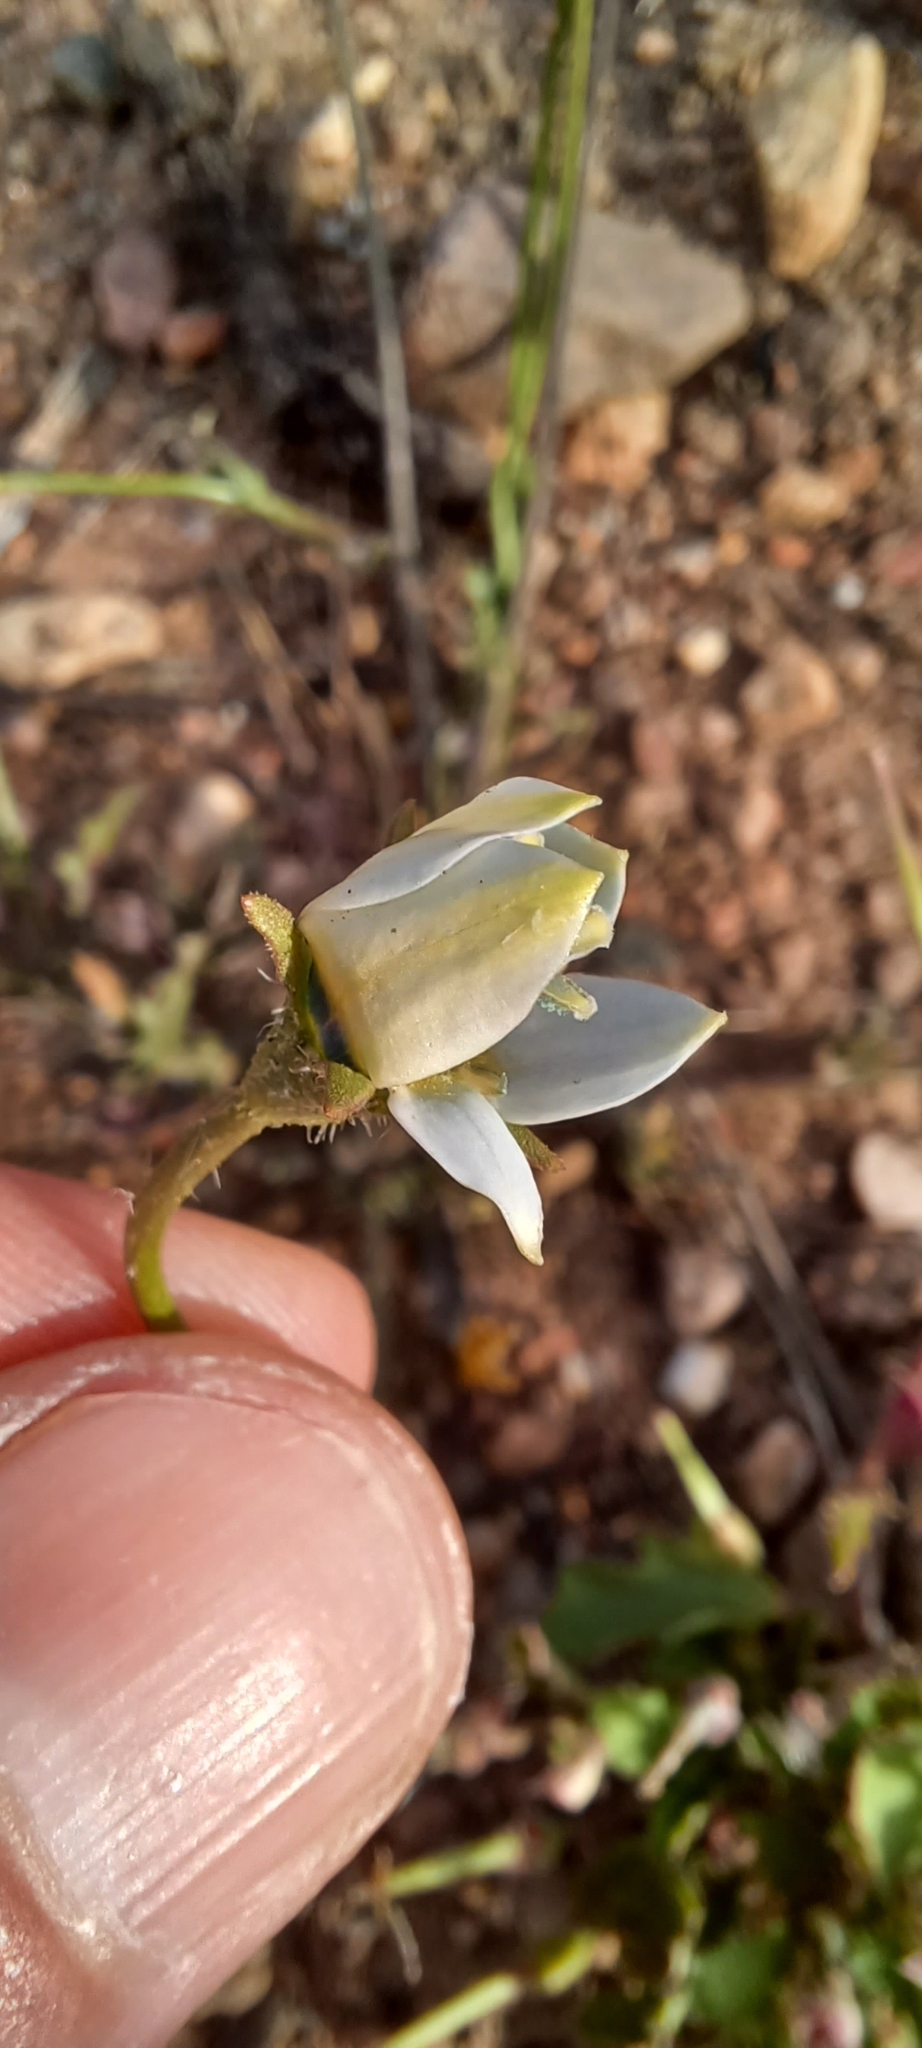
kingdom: Plantae
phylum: Tracheophyta
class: Magnoliopsida
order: Asterales
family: Campanulaceae
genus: Wahlenbergia
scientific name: Wahlenbergia capensis
